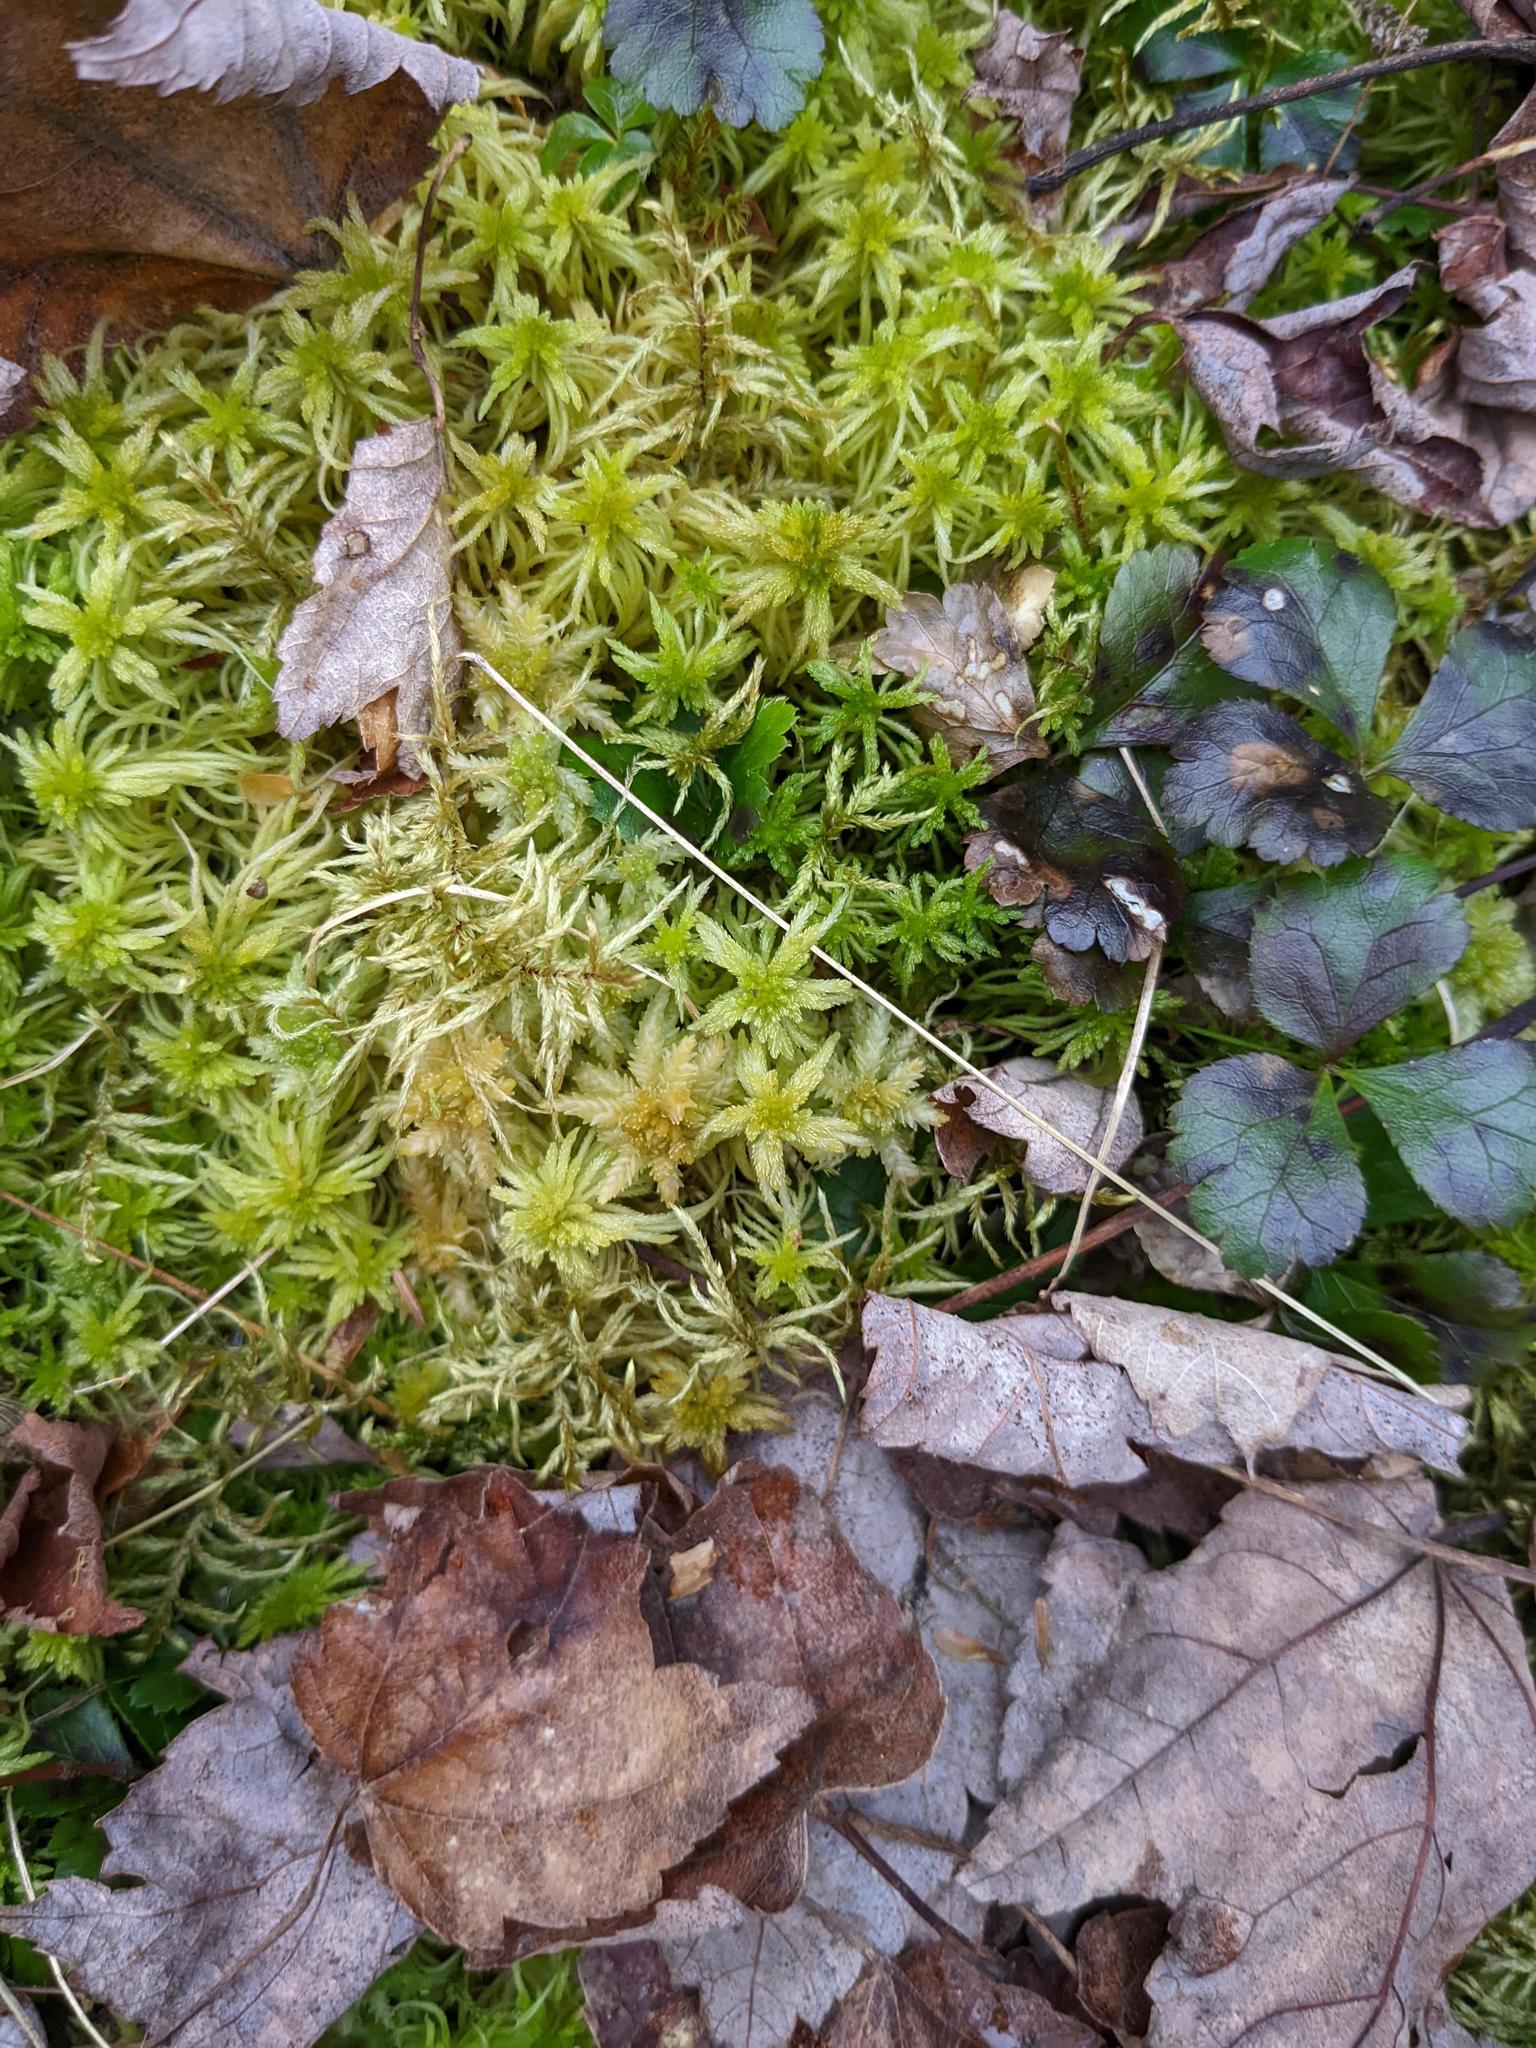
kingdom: Plantae
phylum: Tracheophyta
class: Magnoliopsida
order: Ranunculales
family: Ranunculaceae
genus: Coptis
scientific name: Coptis trifolia
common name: Canker-root
